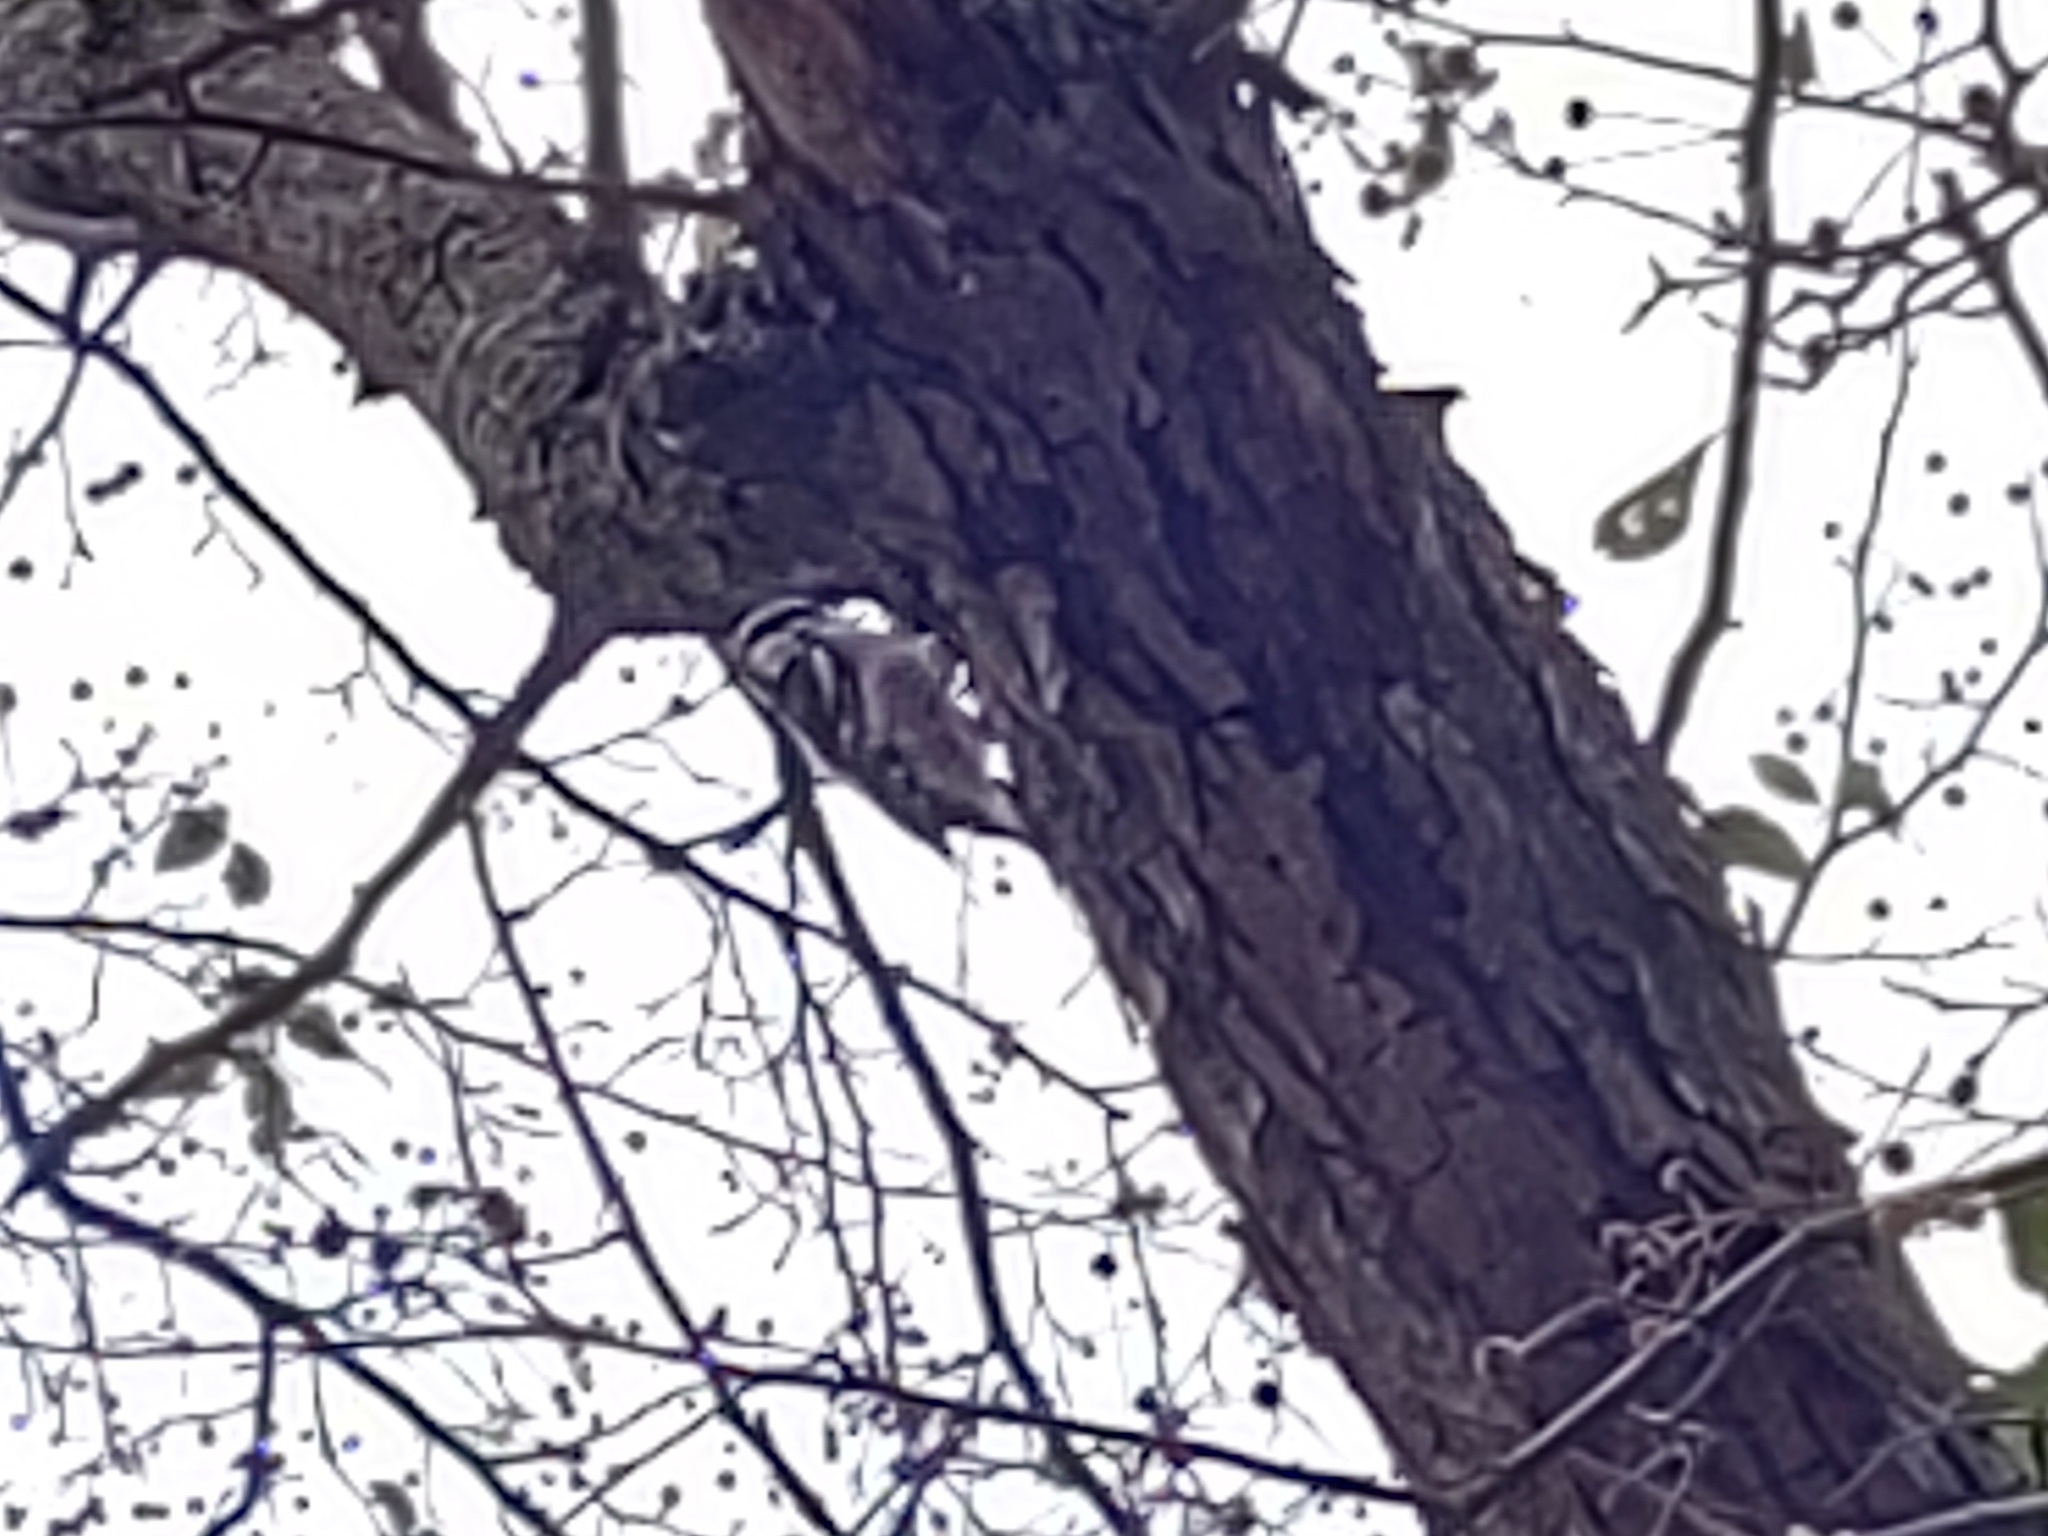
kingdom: Animalia
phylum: Chordata
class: Aves
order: Piciformes
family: Picidae
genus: Dryobates
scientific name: Dryobates pubescens
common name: Downy woodpecker
